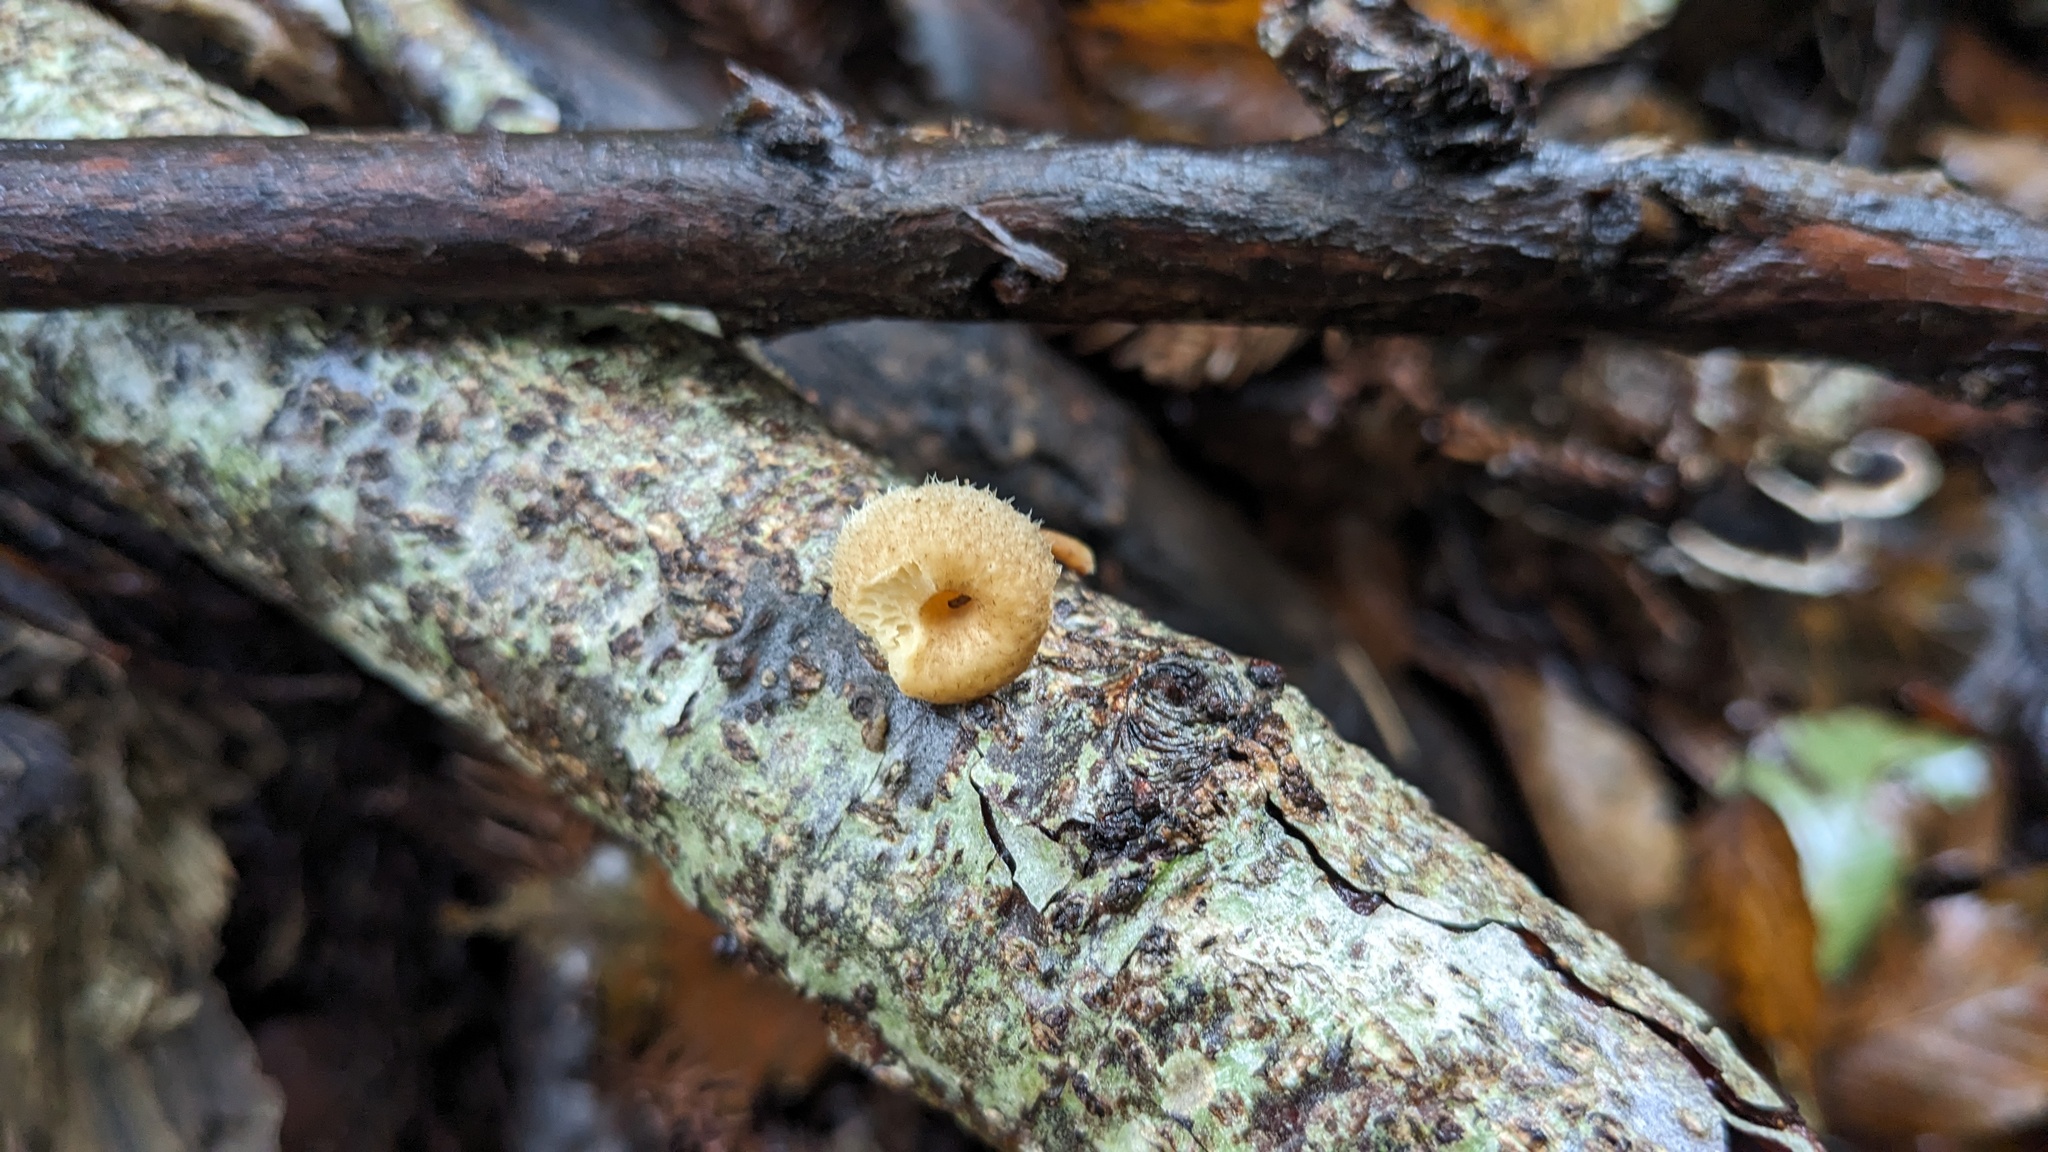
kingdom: Fungi
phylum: Basidiomycota
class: Agaricomycetes
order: Polyporales
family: Polyporaceae
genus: Lentinus
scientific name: Lentinus arcularius
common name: Spring polypore
